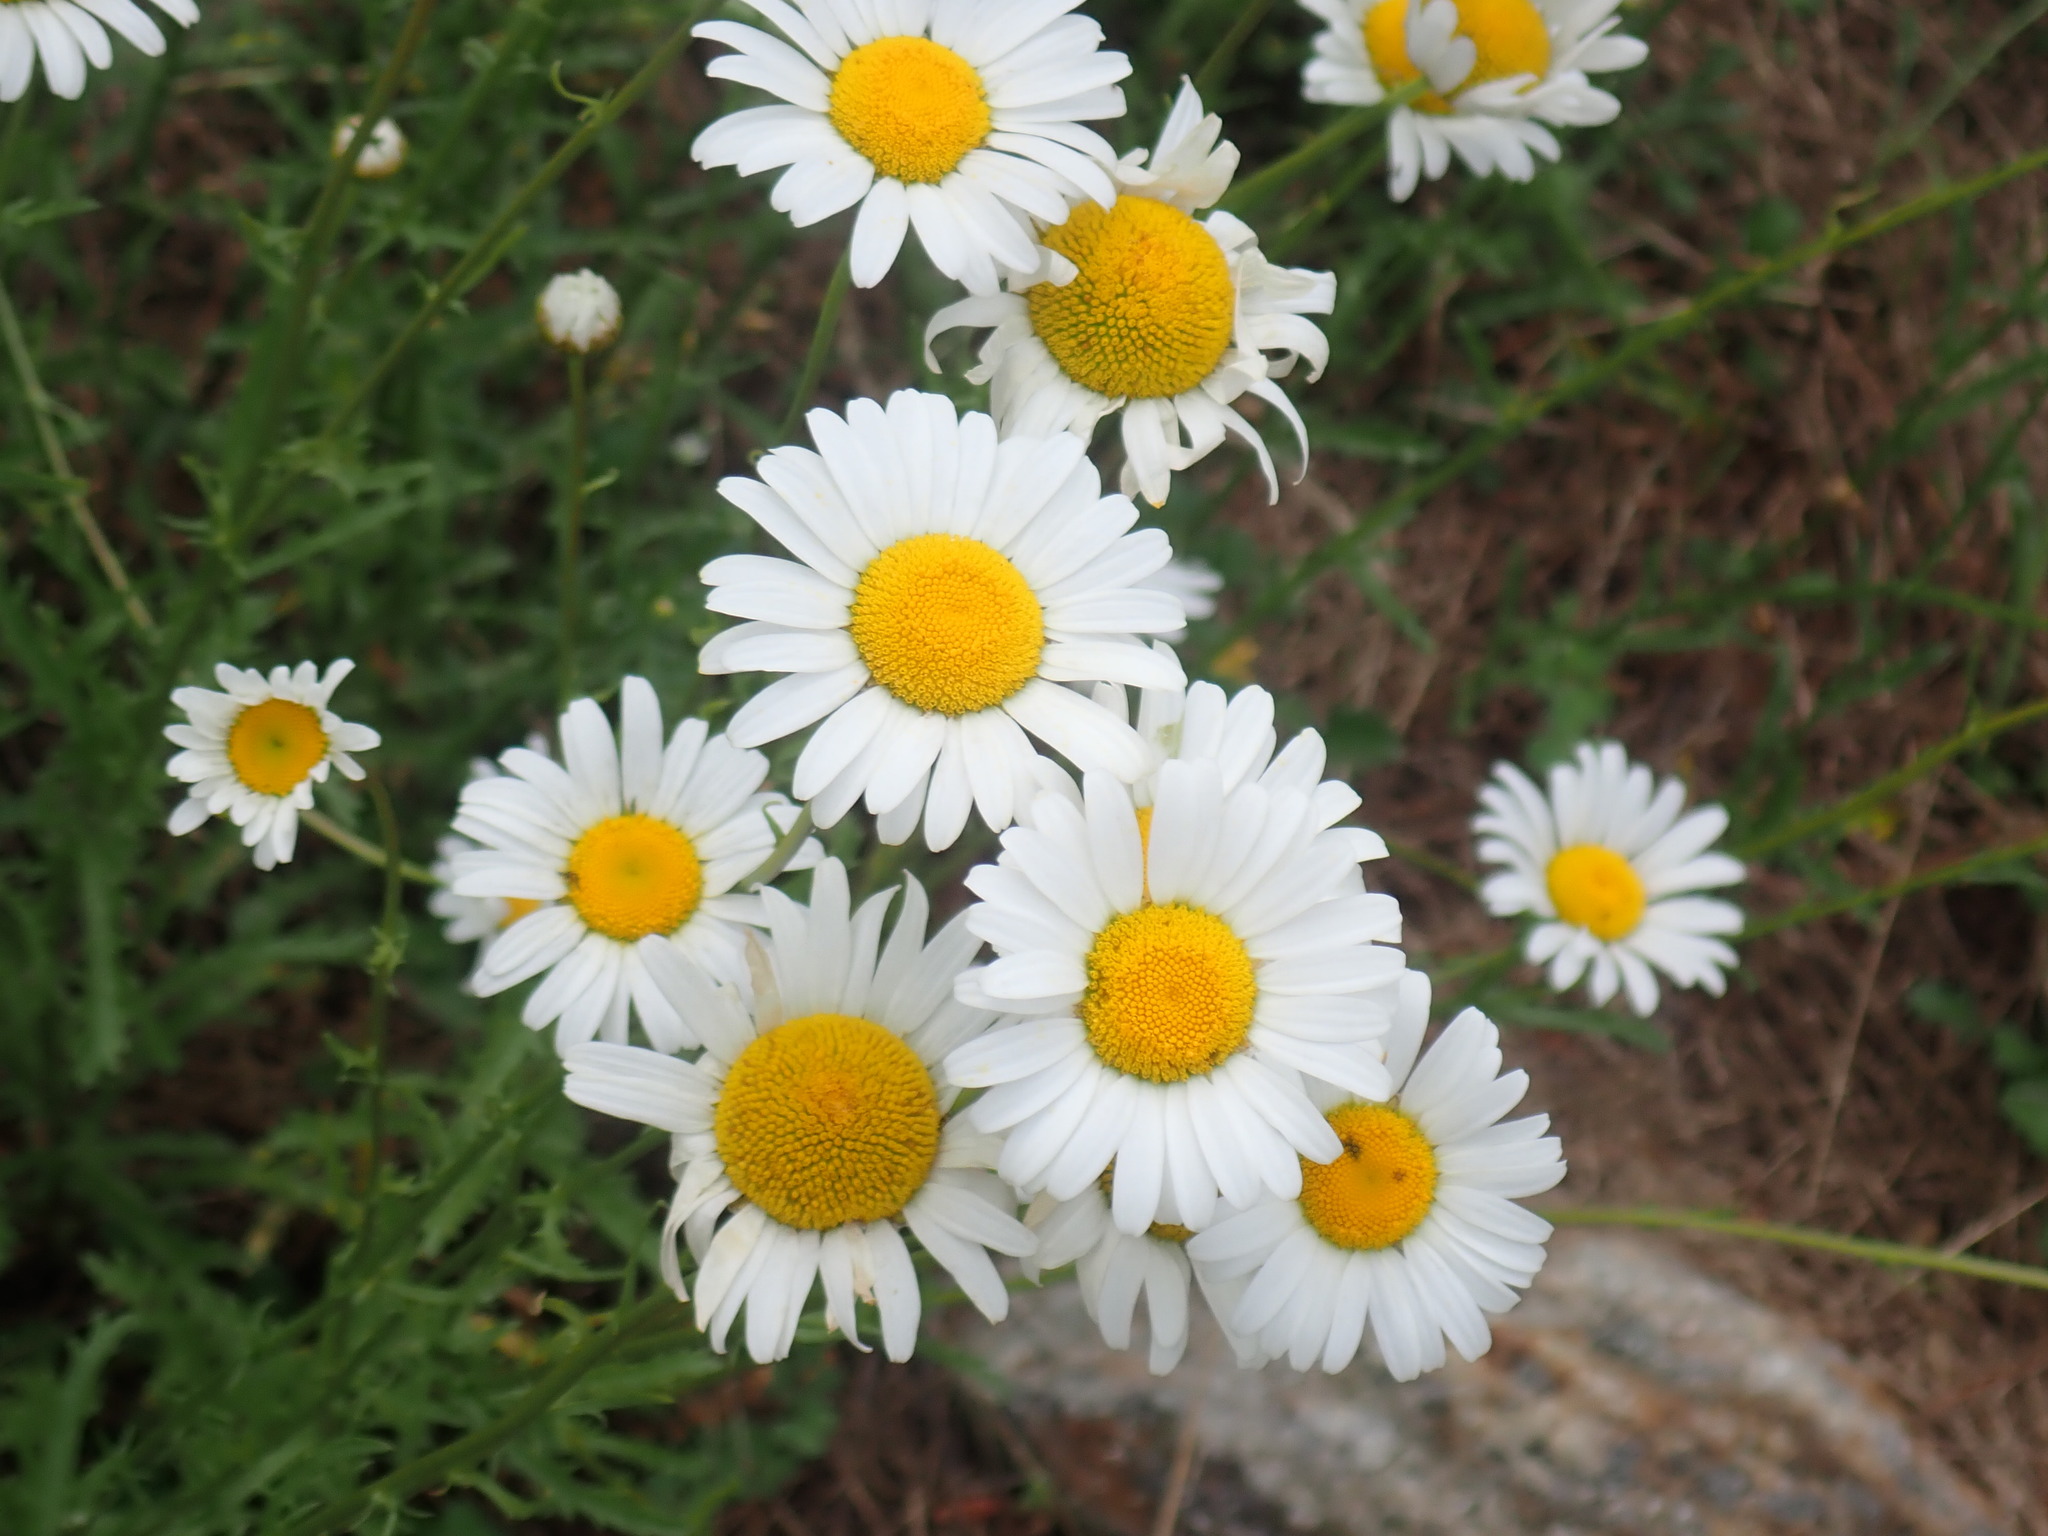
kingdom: Plantae
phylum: Tracheophyta
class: Magnoliopsida
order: Asterales
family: Asteraceae
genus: Leucanthemum
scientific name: Leucanthemum vulgare
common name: Oxeye daisy
